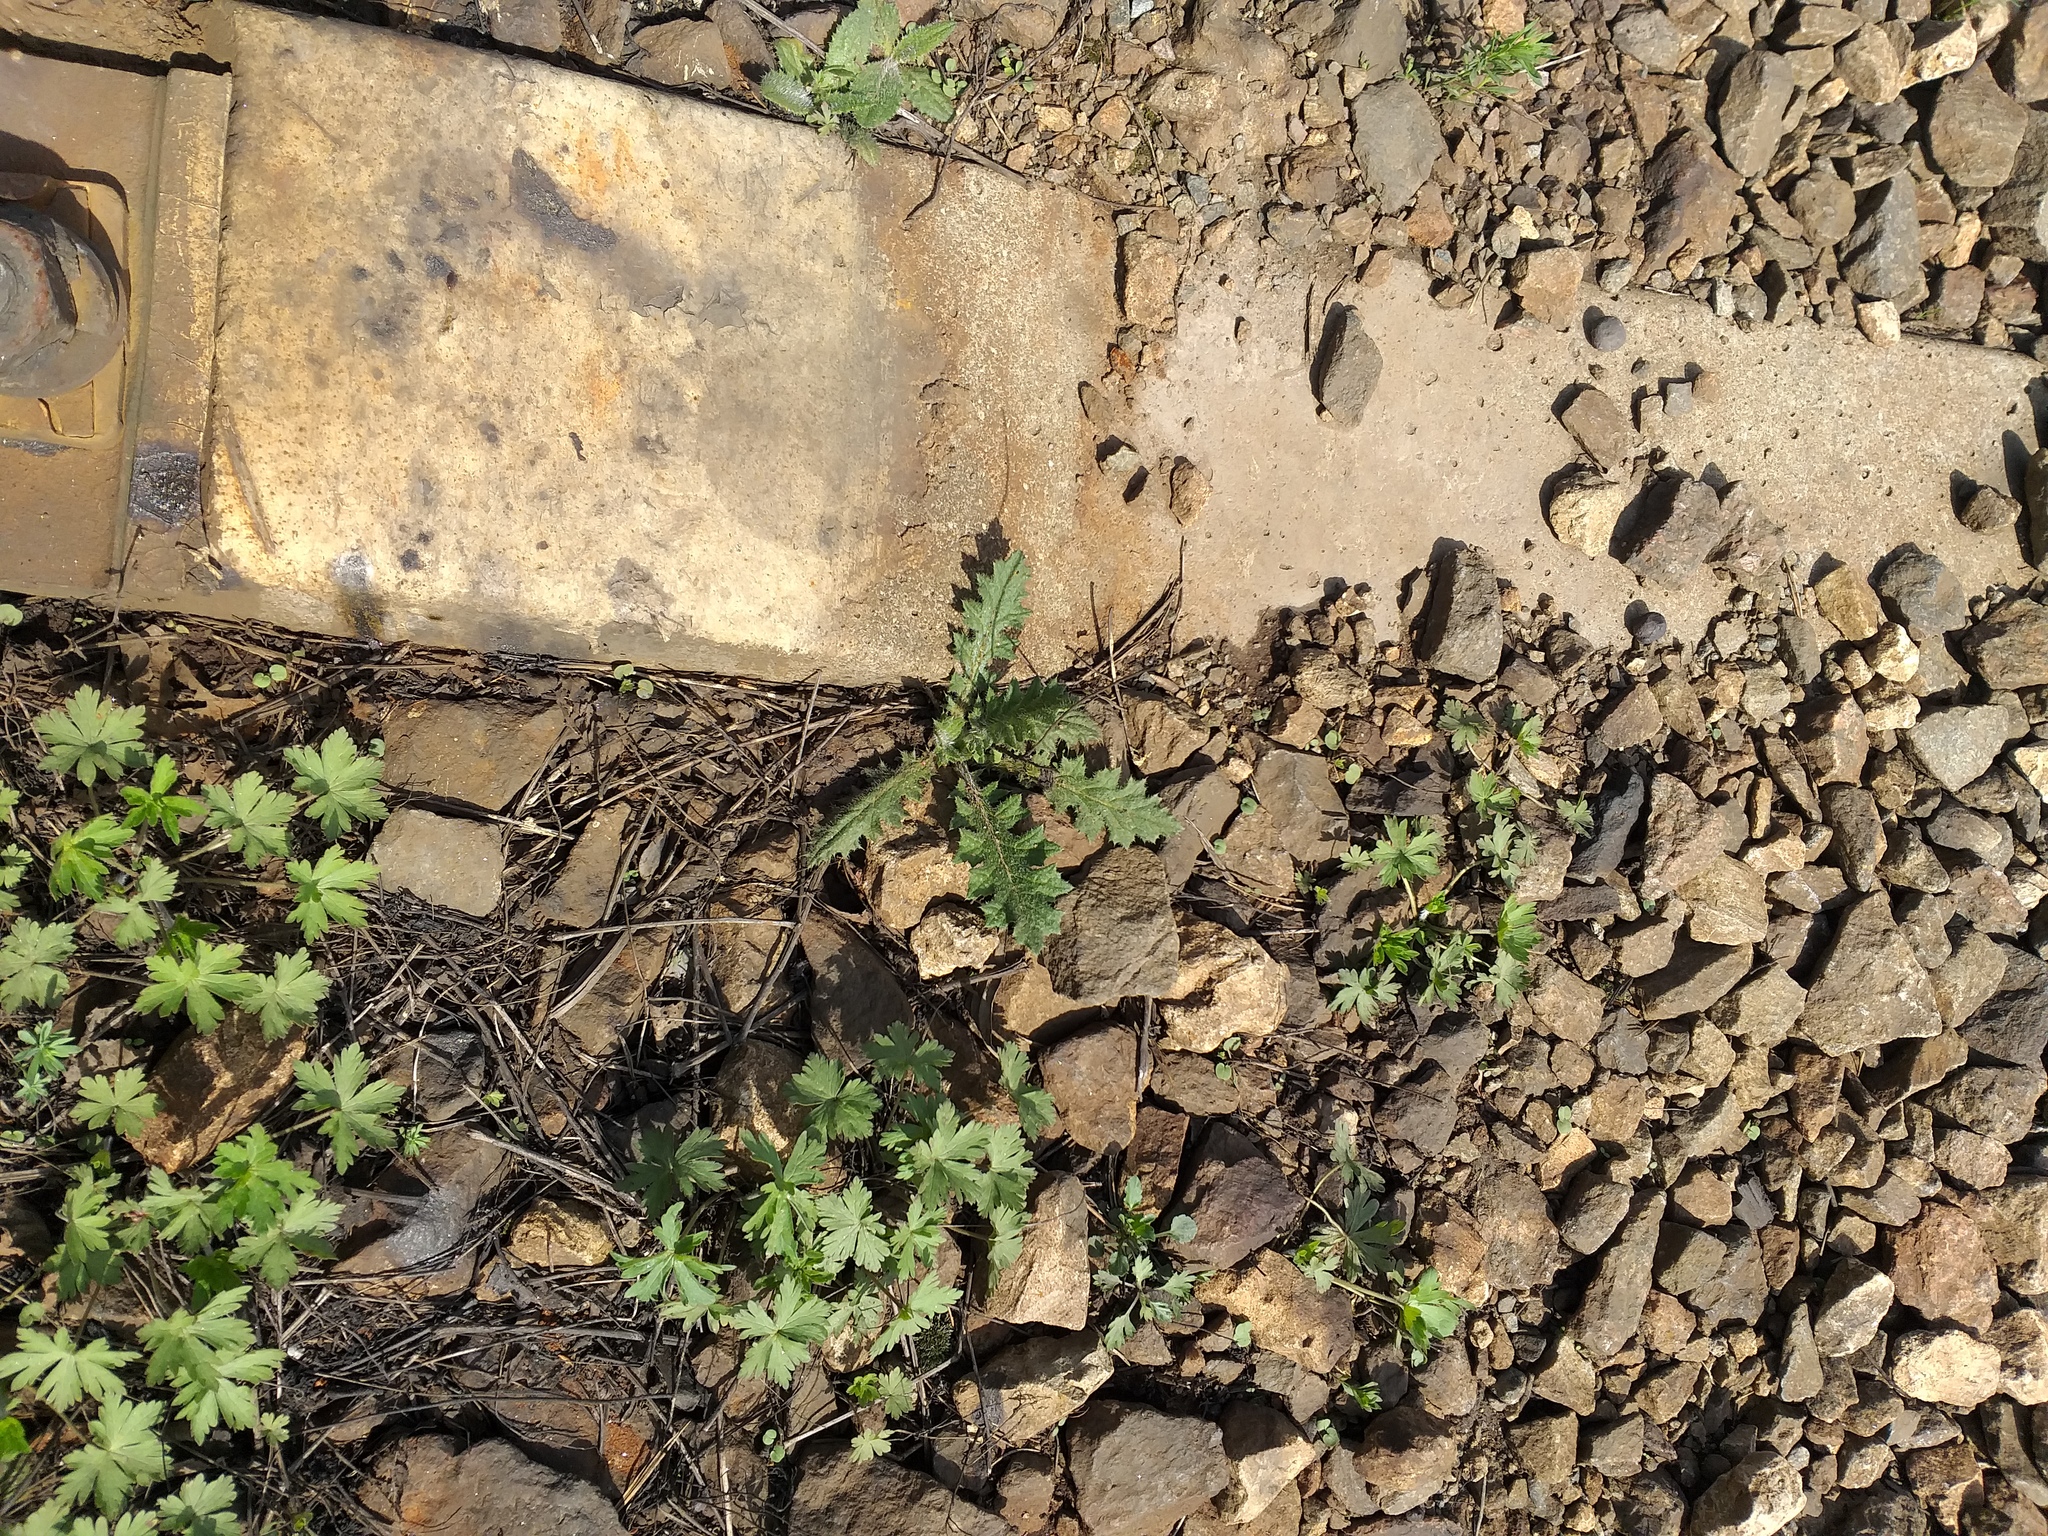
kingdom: Plantae
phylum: Tracheophyta
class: Magnoliopsida
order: Asterales
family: Asteraceae
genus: Cirsium
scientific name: Cirsium vulgare
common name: Bull thistle
